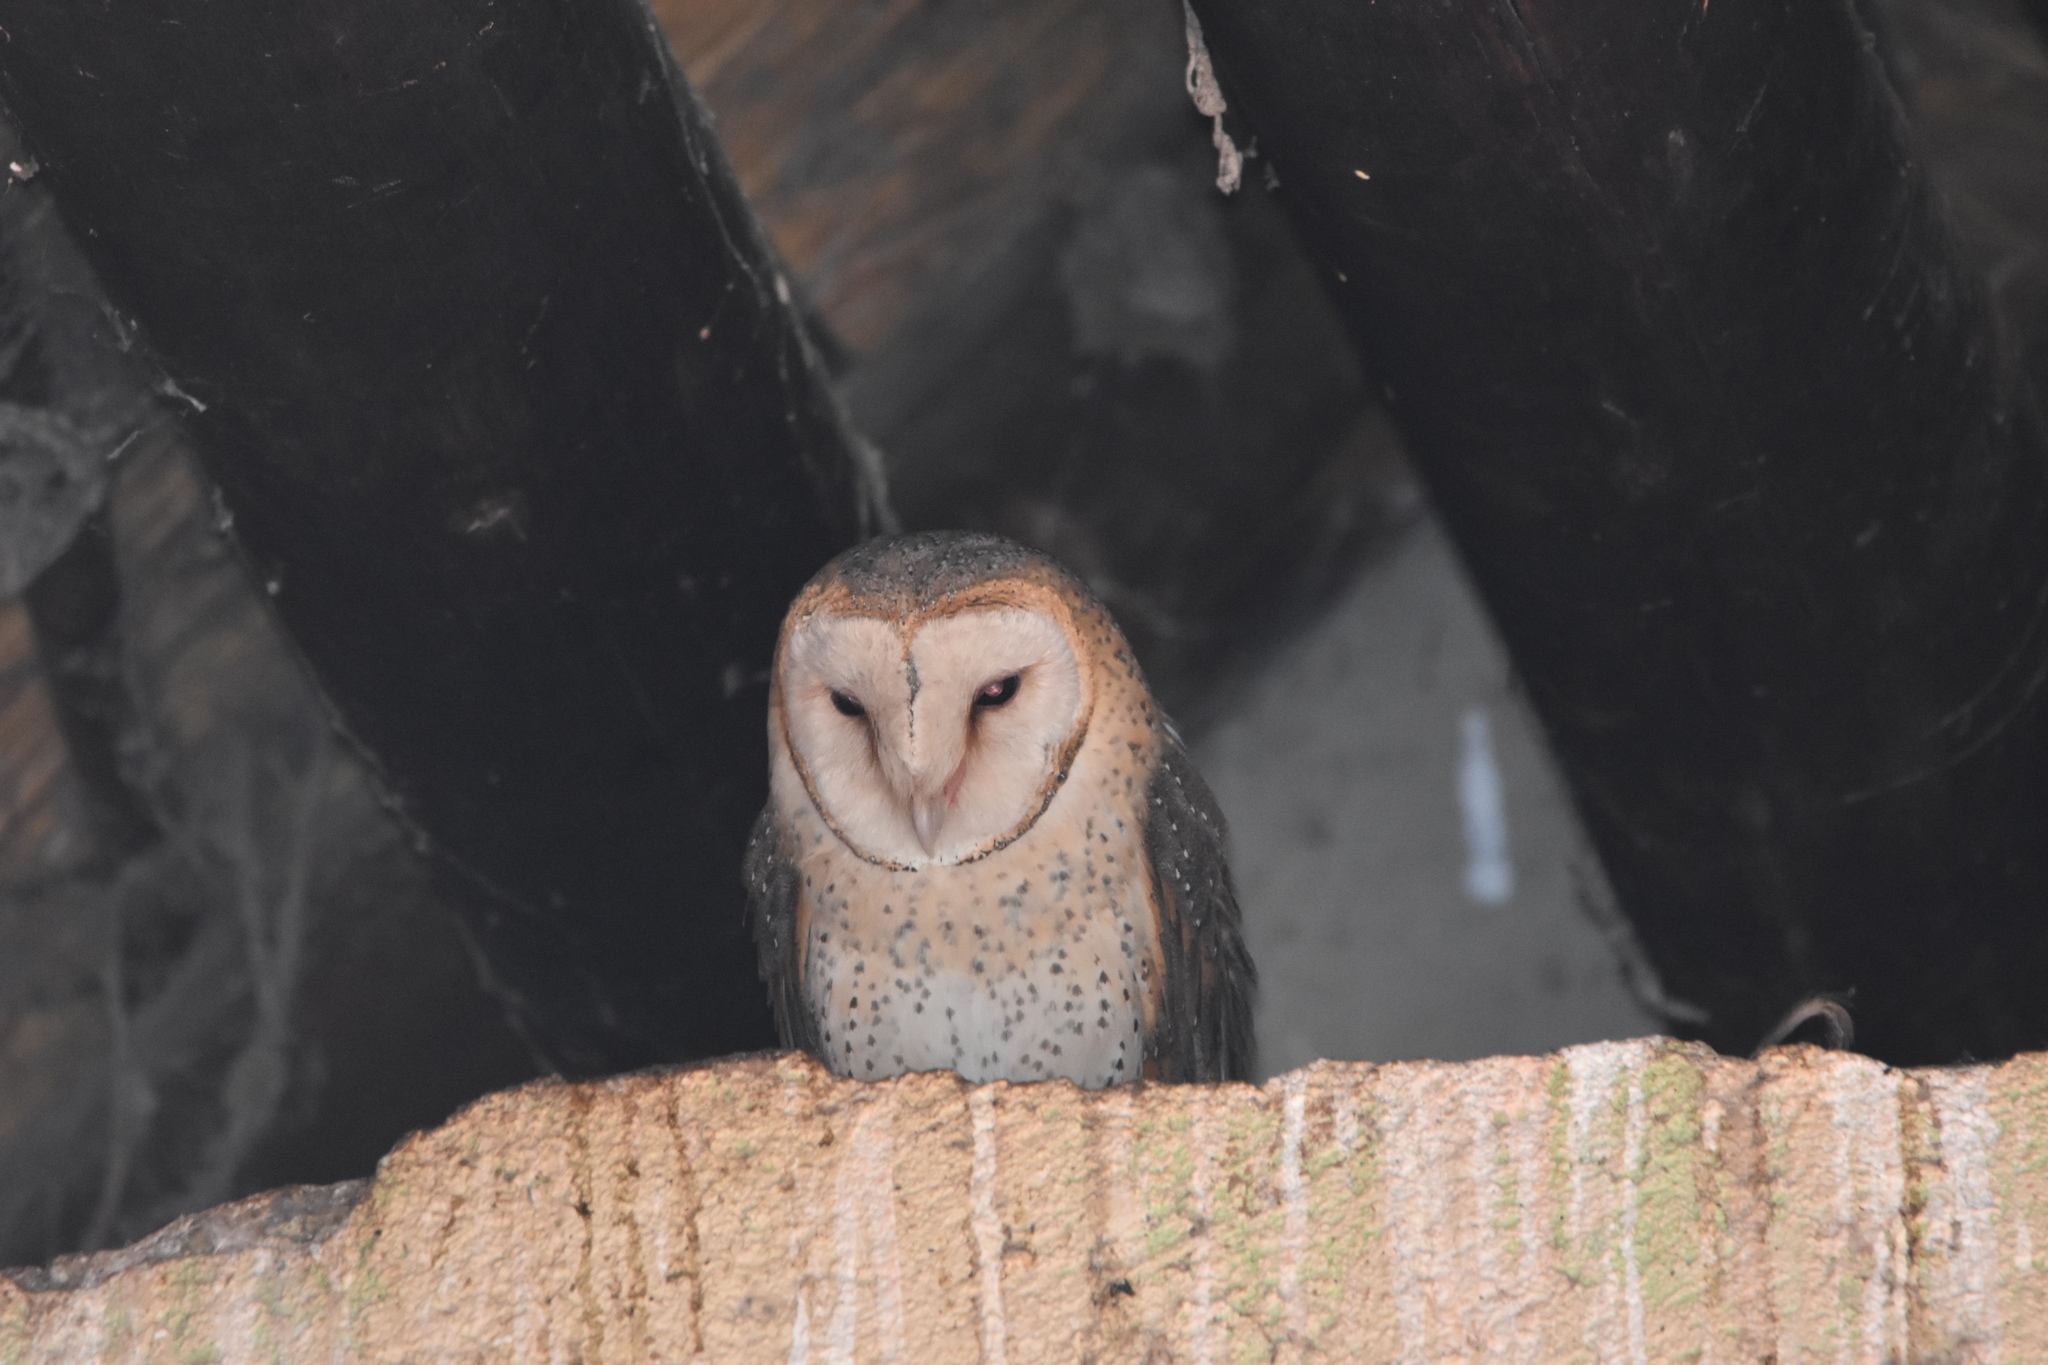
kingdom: Animalia
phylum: Chordata
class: Aves
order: Strigiformes
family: Tytonidae
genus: Tyto
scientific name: Tyto alba
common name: Barn owl
